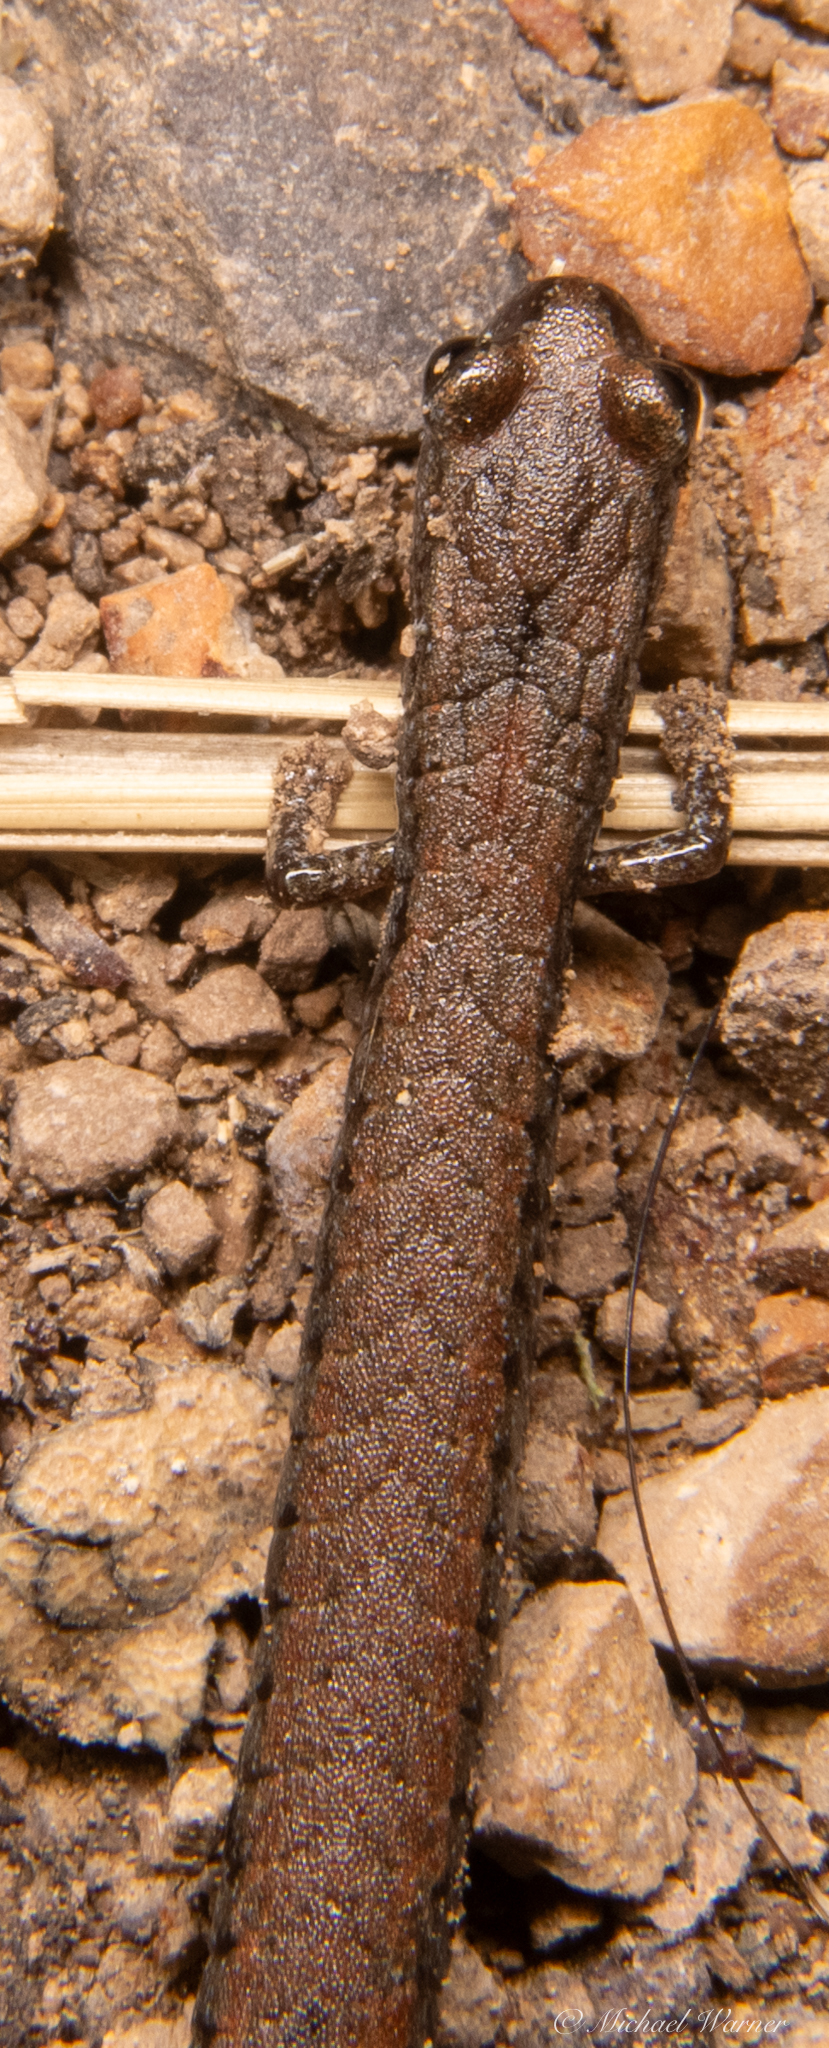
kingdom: Animalia
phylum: Chordata
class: Amphibia
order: Caudata
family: Plethodontidae
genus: Batrachoseps
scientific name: Batrachoseps attenuatus
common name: California slender salamander
